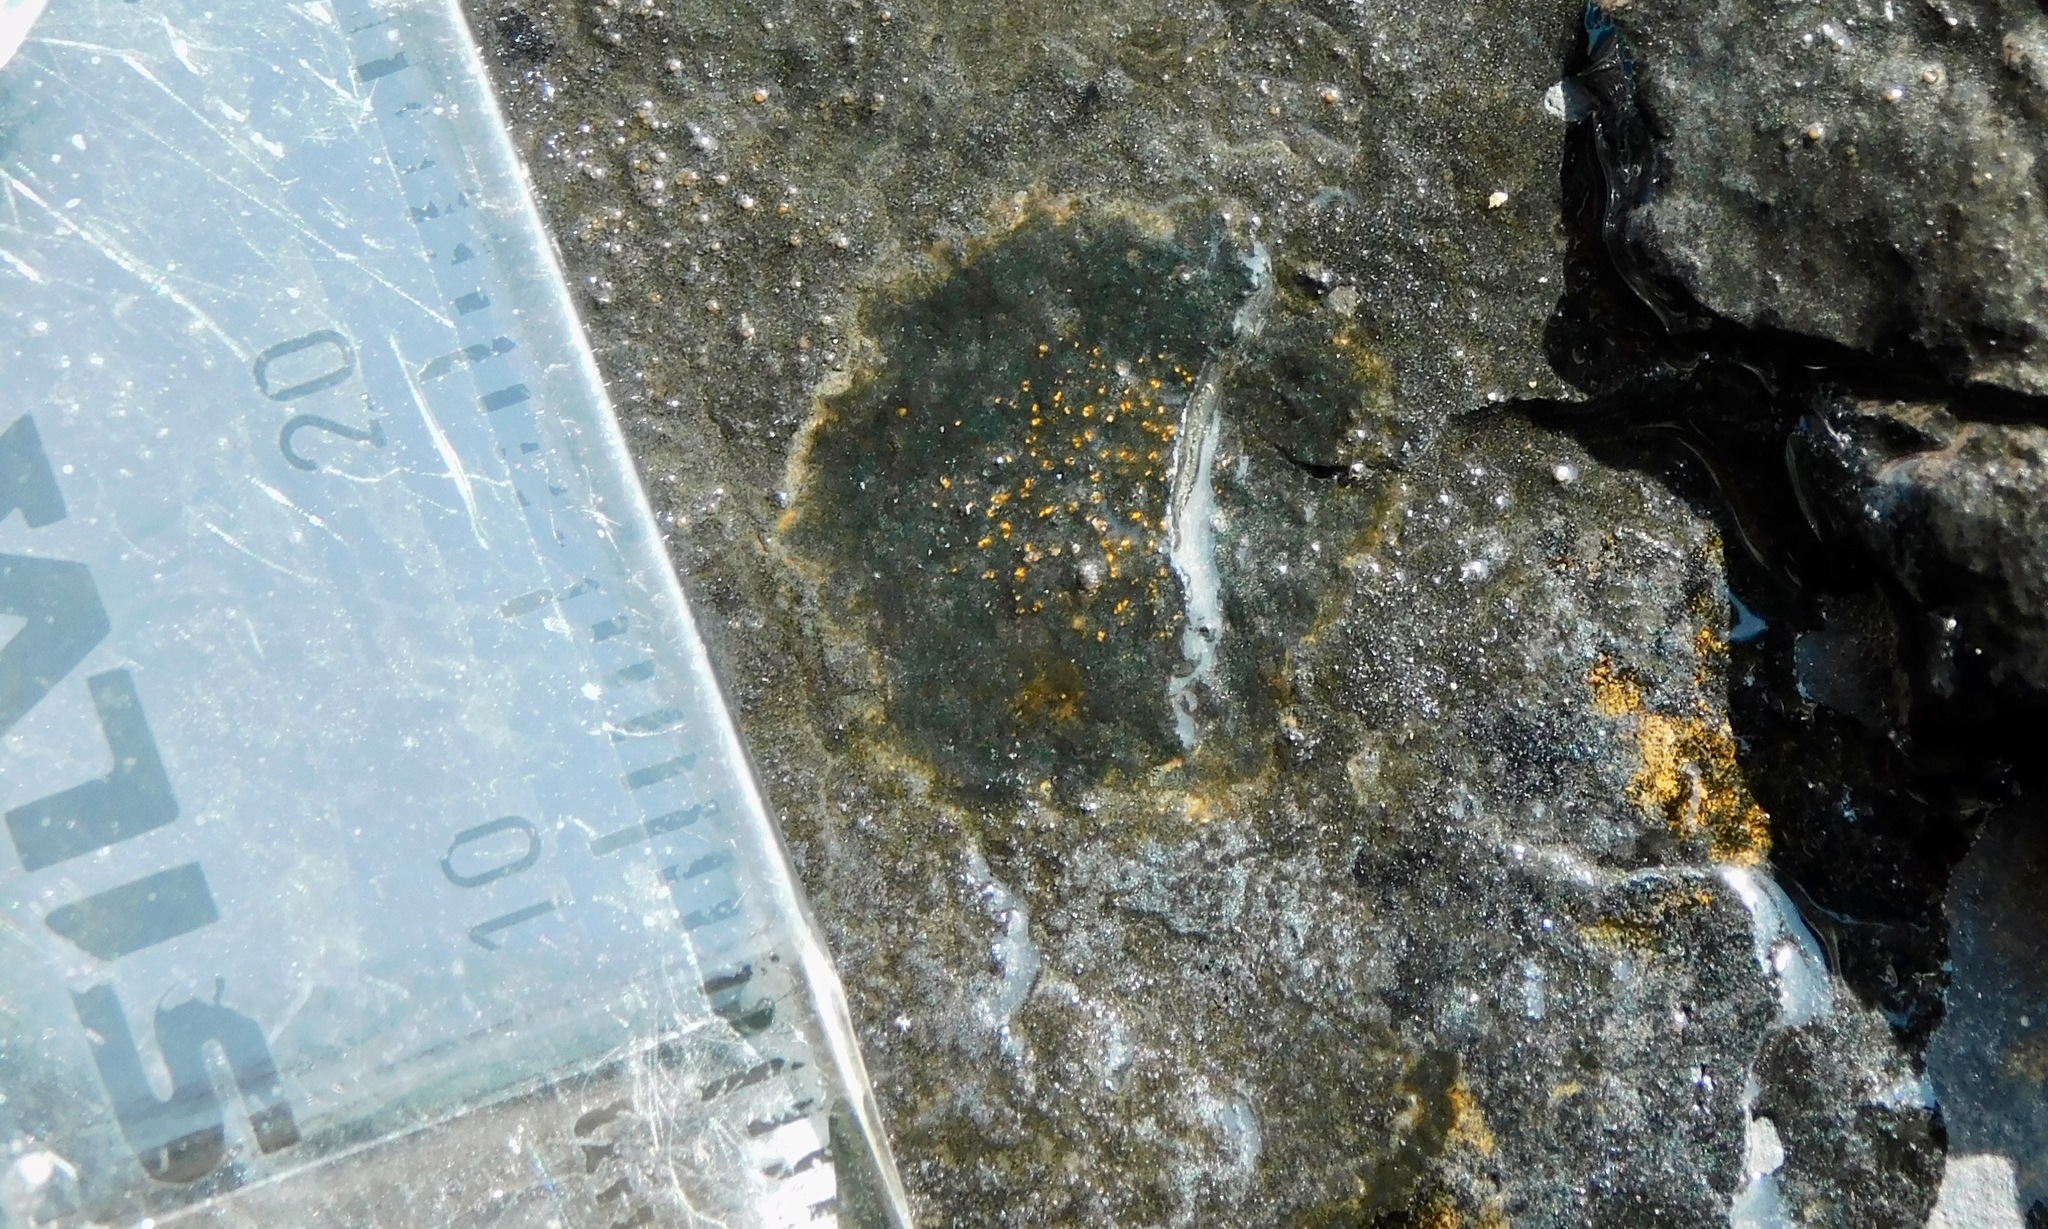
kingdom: Fungi
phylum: Ascomycota
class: Eurotiomycetes
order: Verrucariales
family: Verrucariaceae
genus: Wahlenbergiella
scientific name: Wahlenbergiella mucosa
